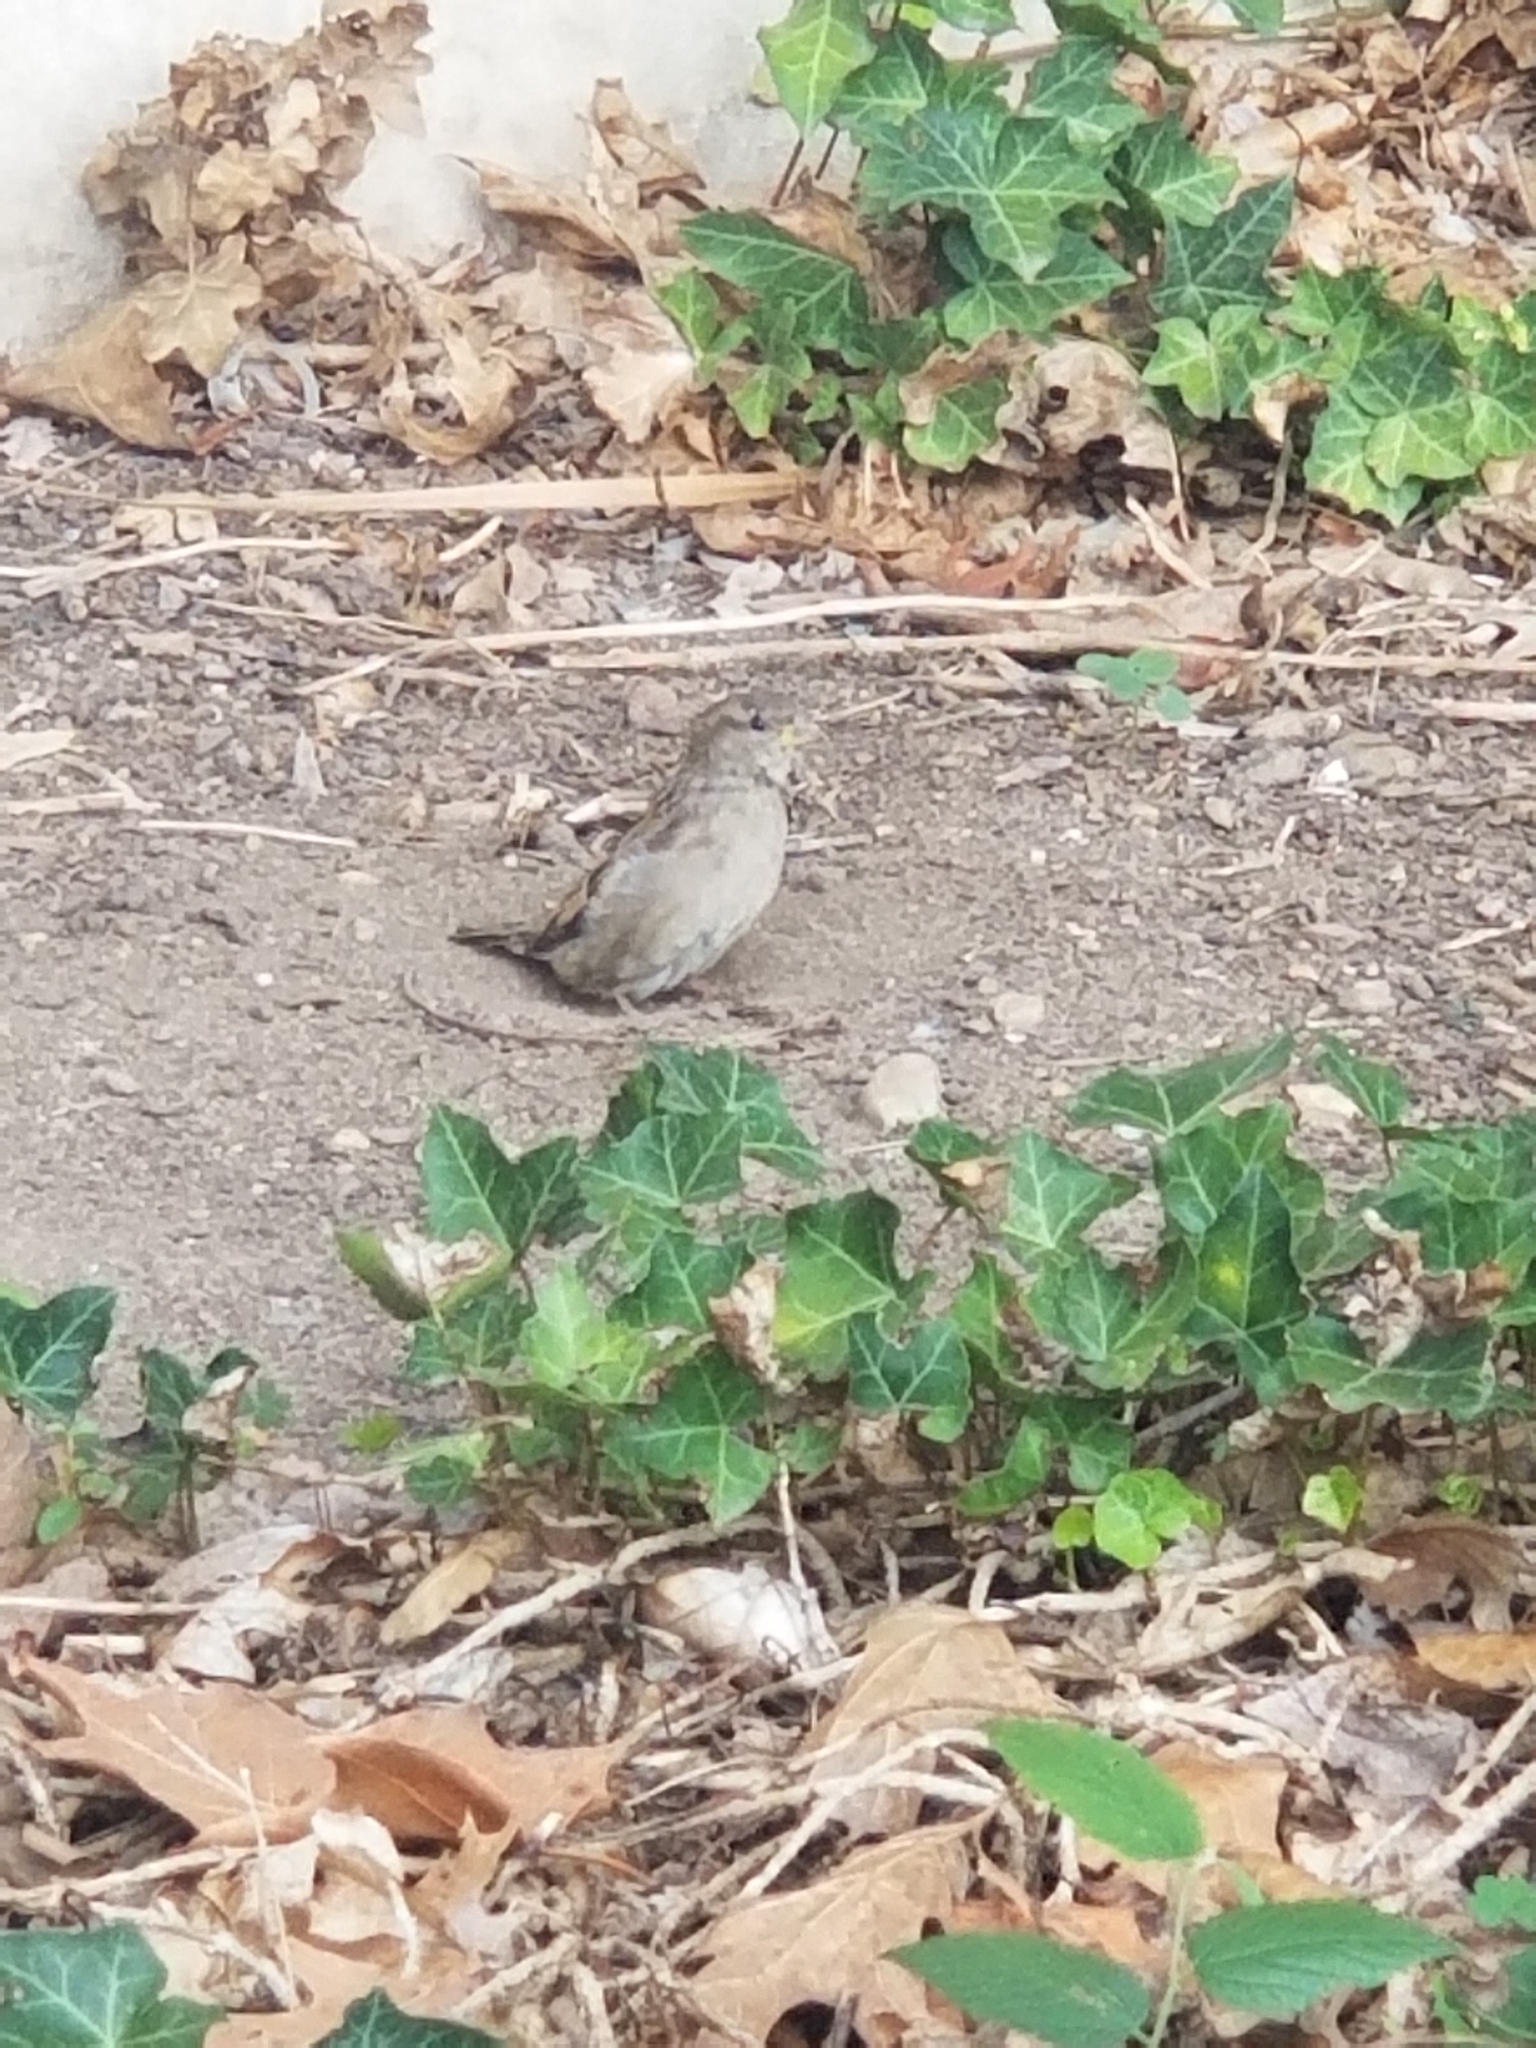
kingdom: Animalia
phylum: Chordata
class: Aves
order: Passeriformes
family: Passeridae
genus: Passer
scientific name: Passer domesticus
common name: House sparrow
